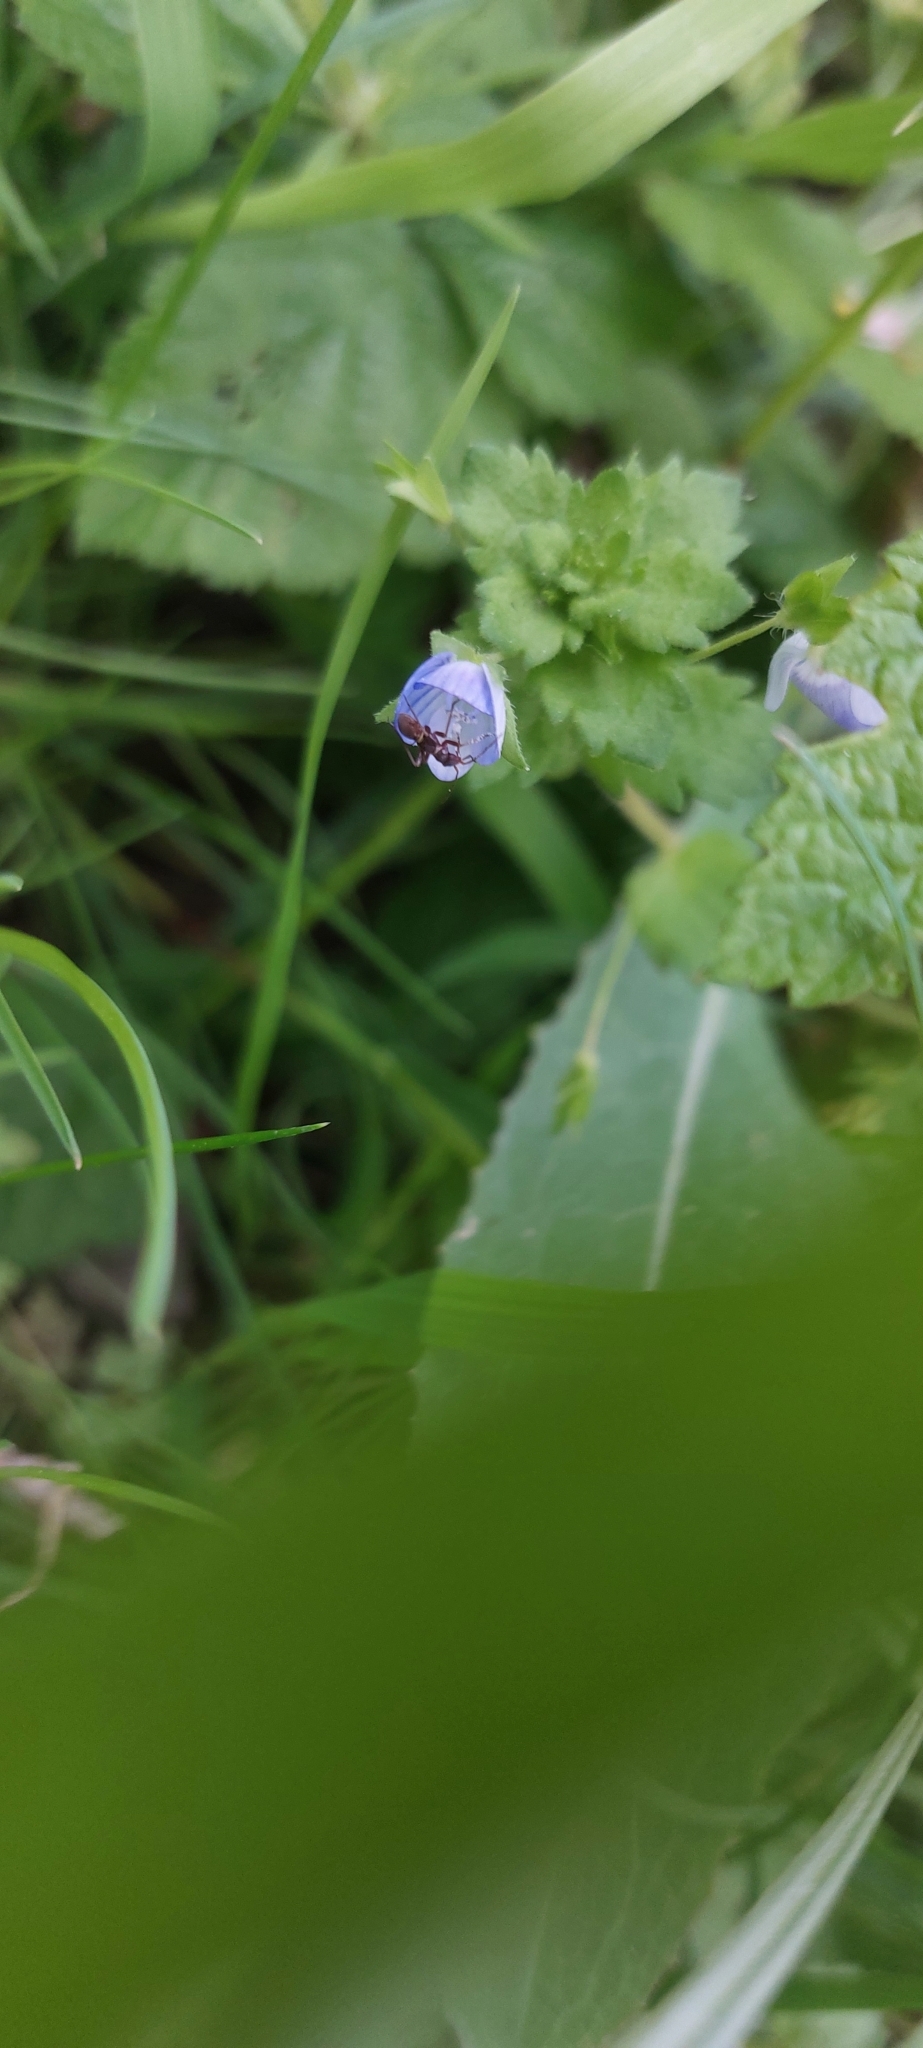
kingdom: Plantae
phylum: Tracheophyta
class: Magnoliopsida
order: Lamiales
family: Plantaginaceae
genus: Veronica
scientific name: Veronica persica
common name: Common field-speedwell
